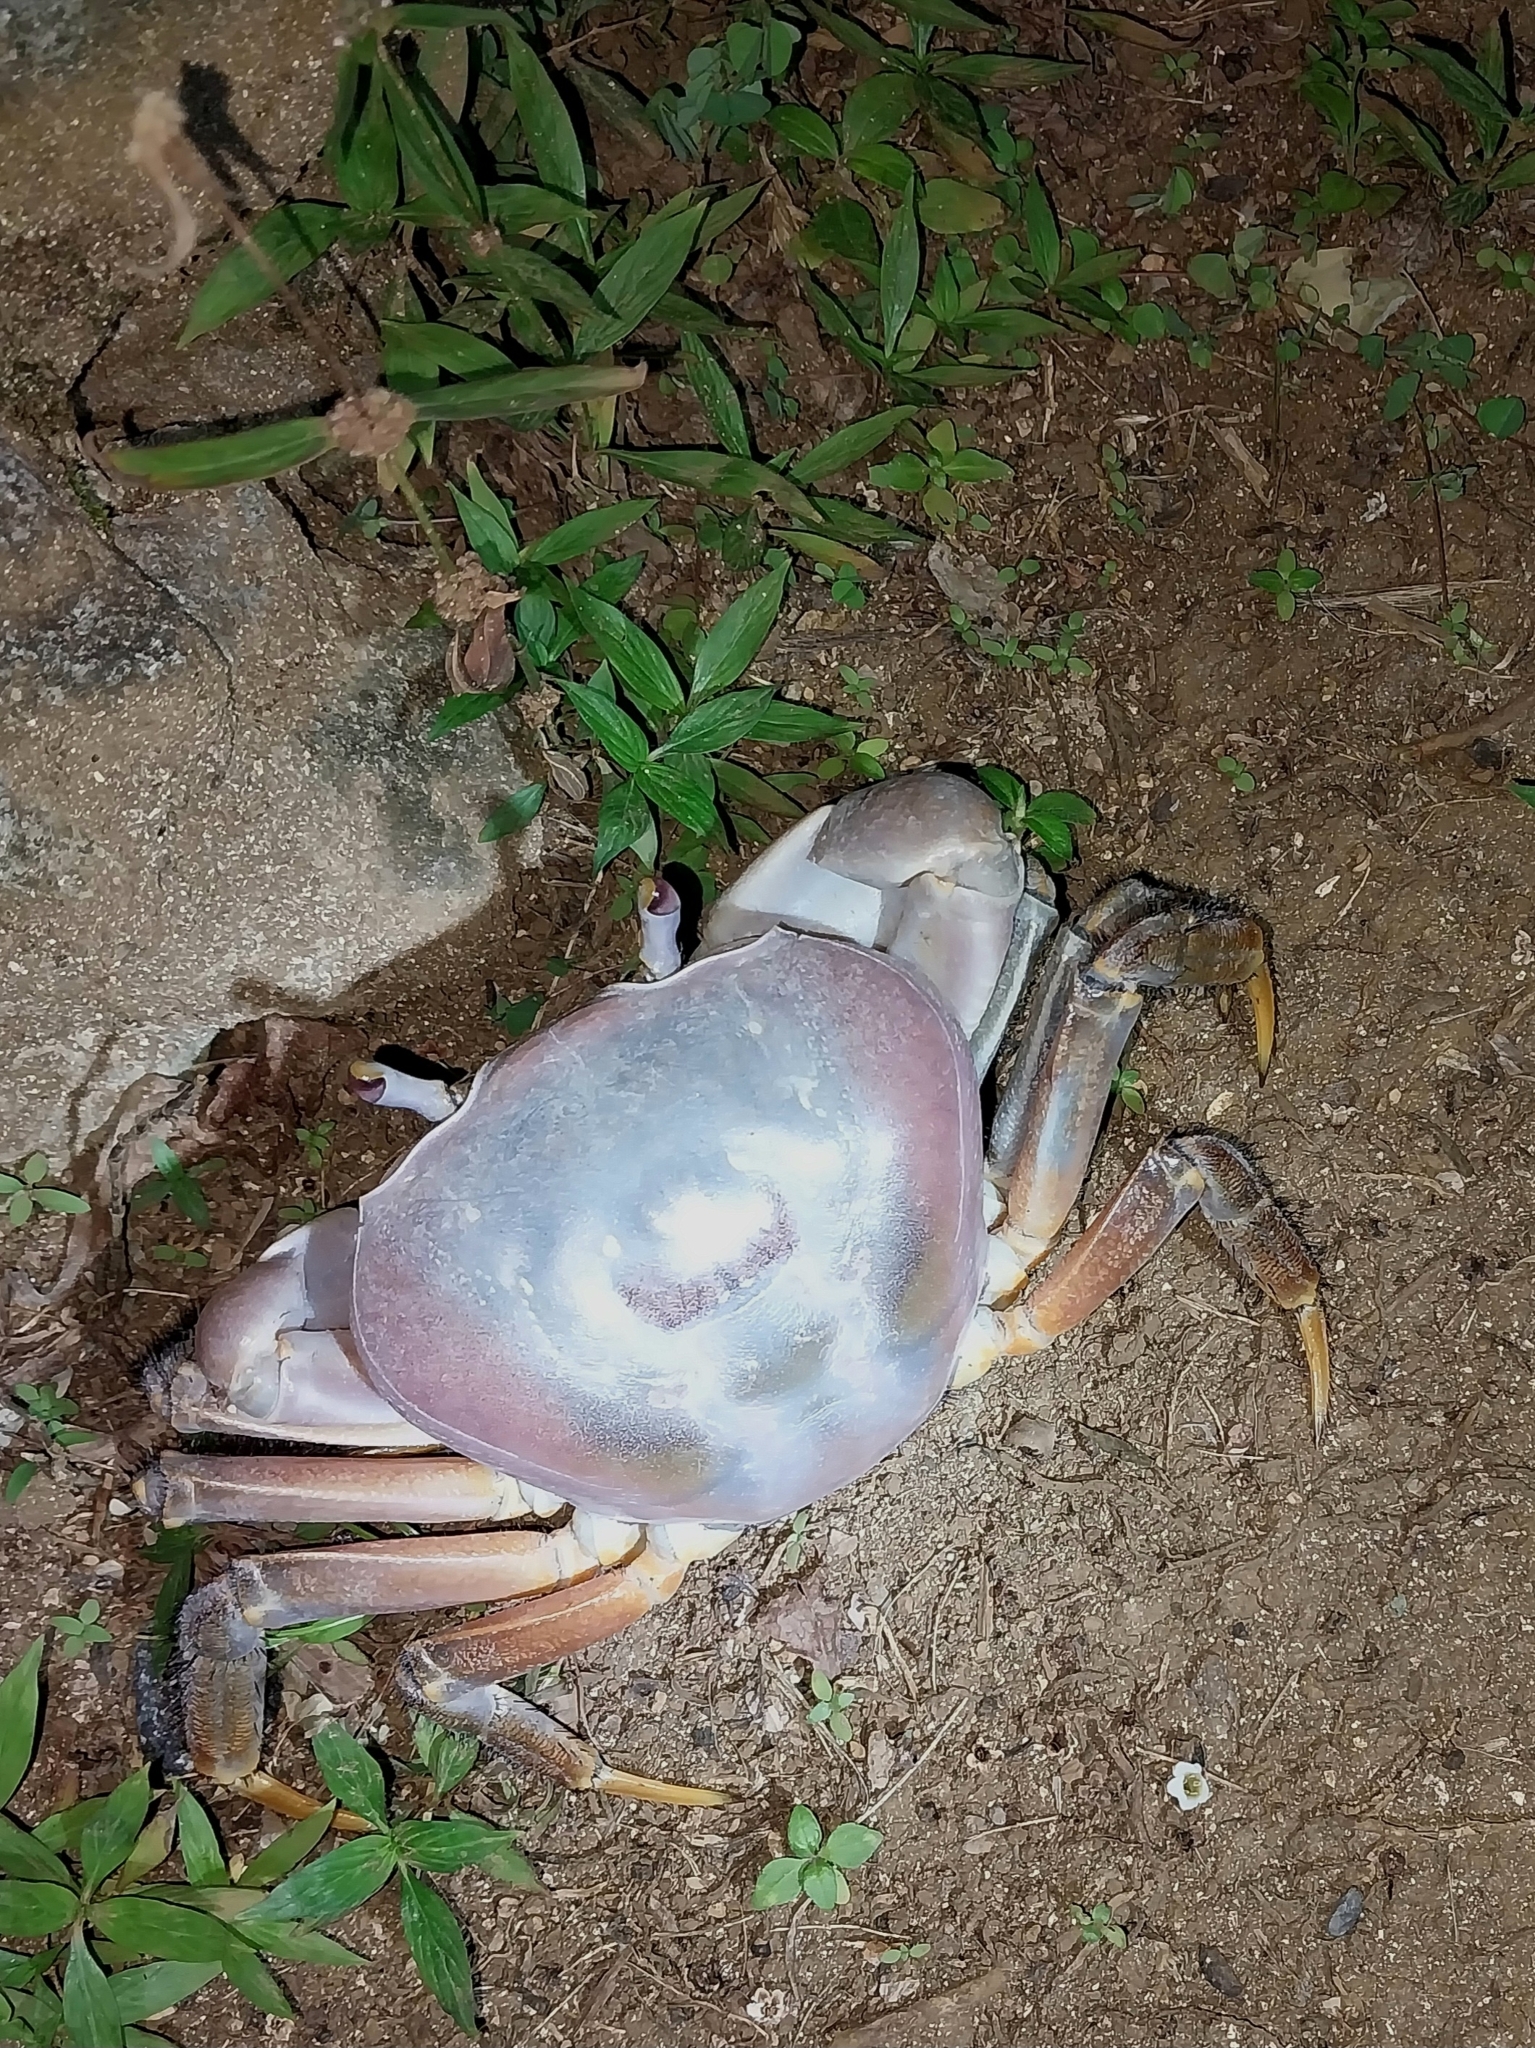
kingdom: Animalia
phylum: Arthropoda
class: Malacostraca
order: Decapoda
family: Gecarcinidae
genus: Cardisoma
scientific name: Cardisoma carnifex
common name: Brown land crab
